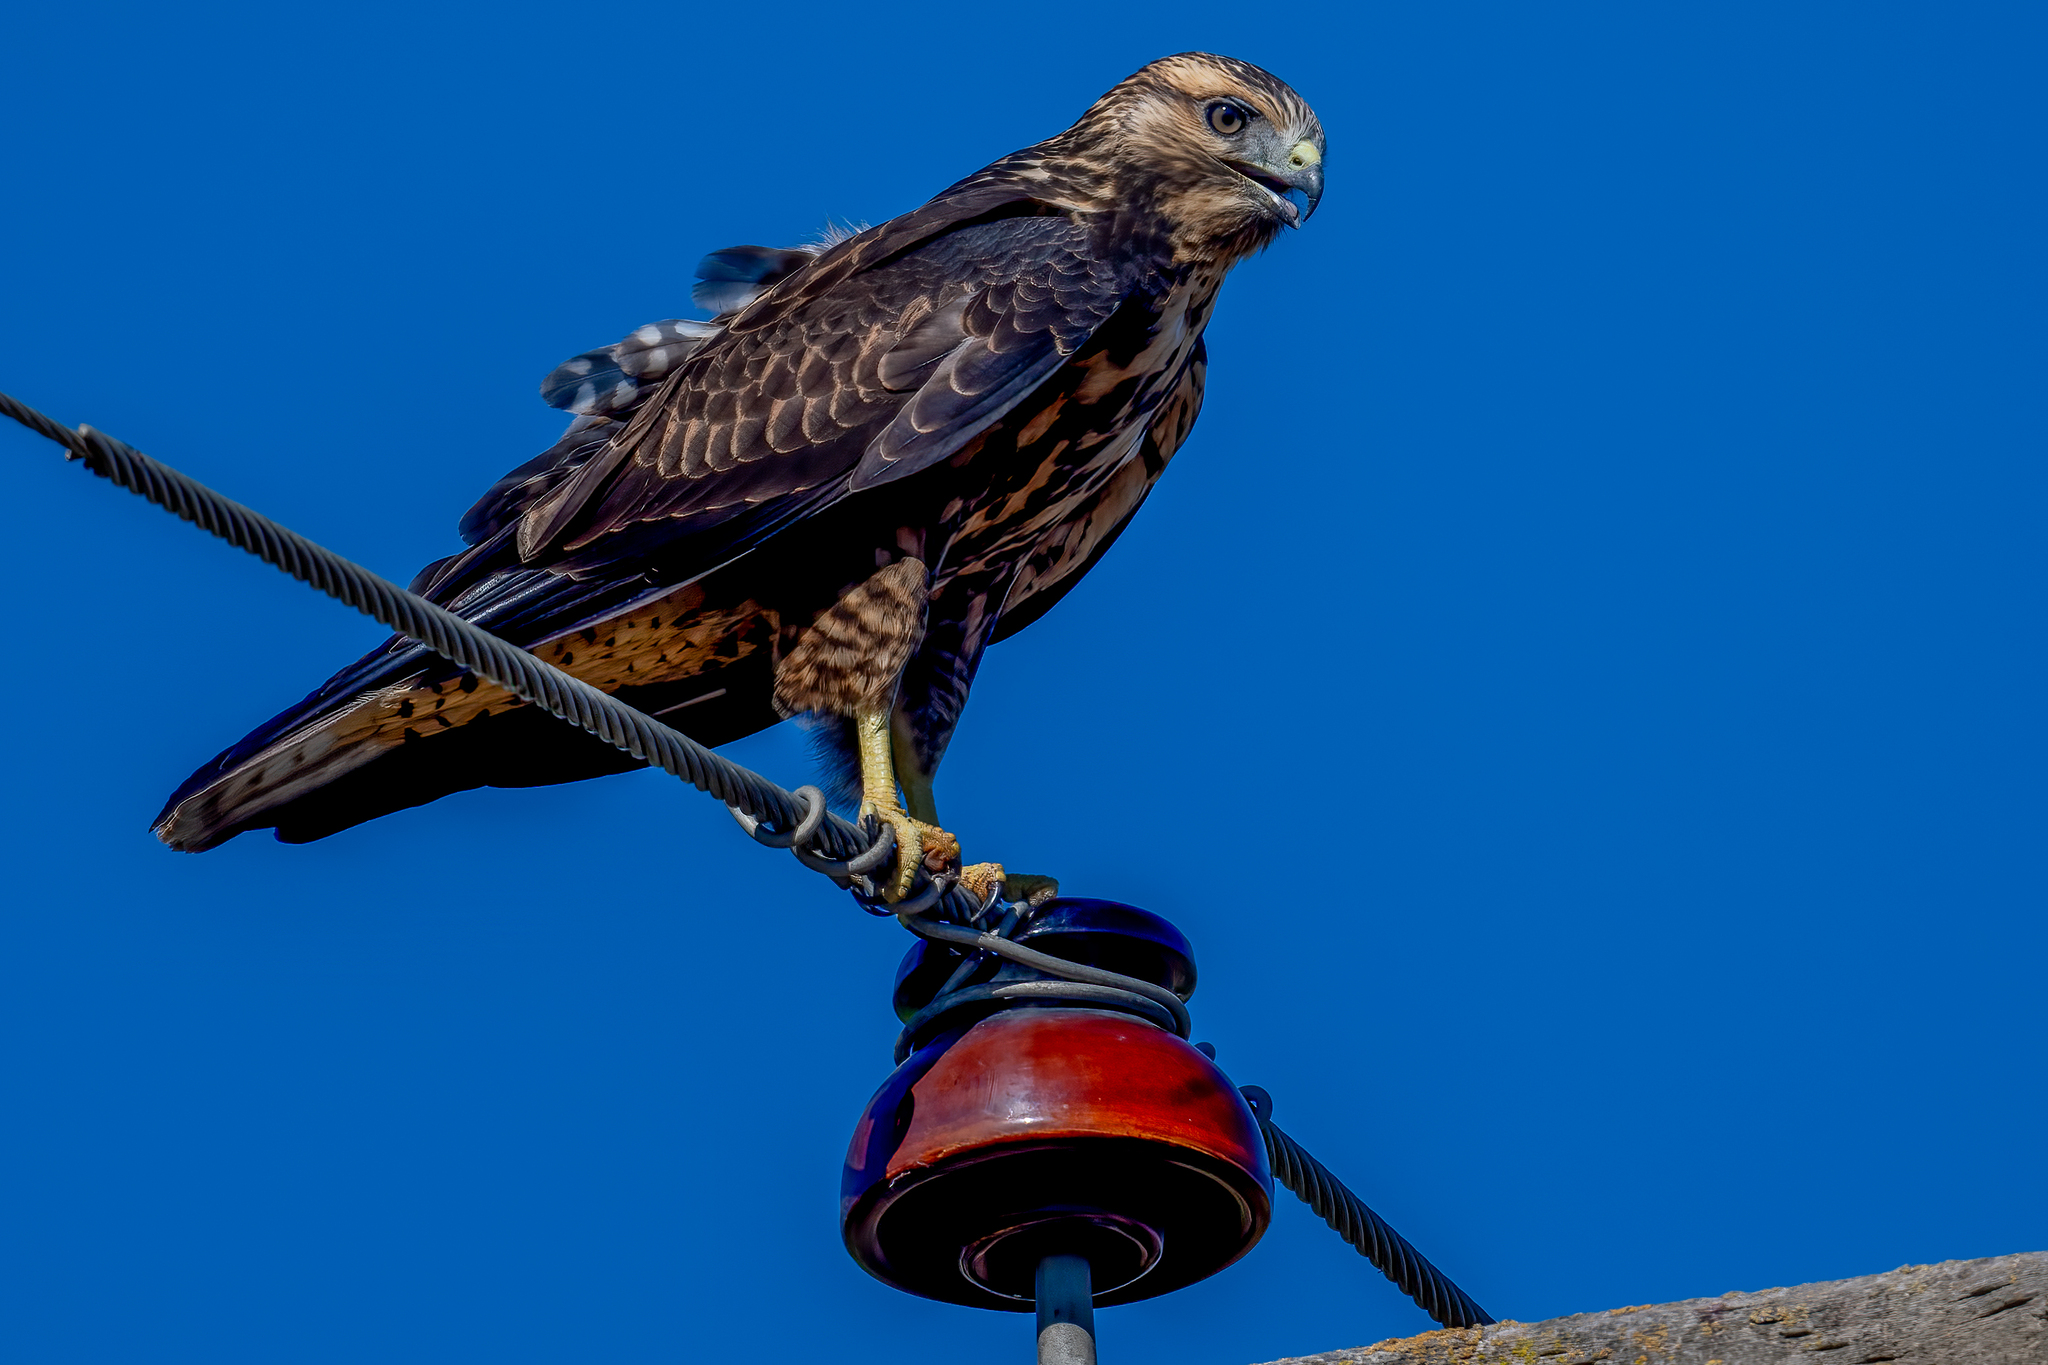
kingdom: Animalia
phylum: Chordata
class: Aves
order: Accipitriformes
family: Accipitridae
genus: Buteo
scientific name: Buteo swainsoni
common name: Swainson's hawk
